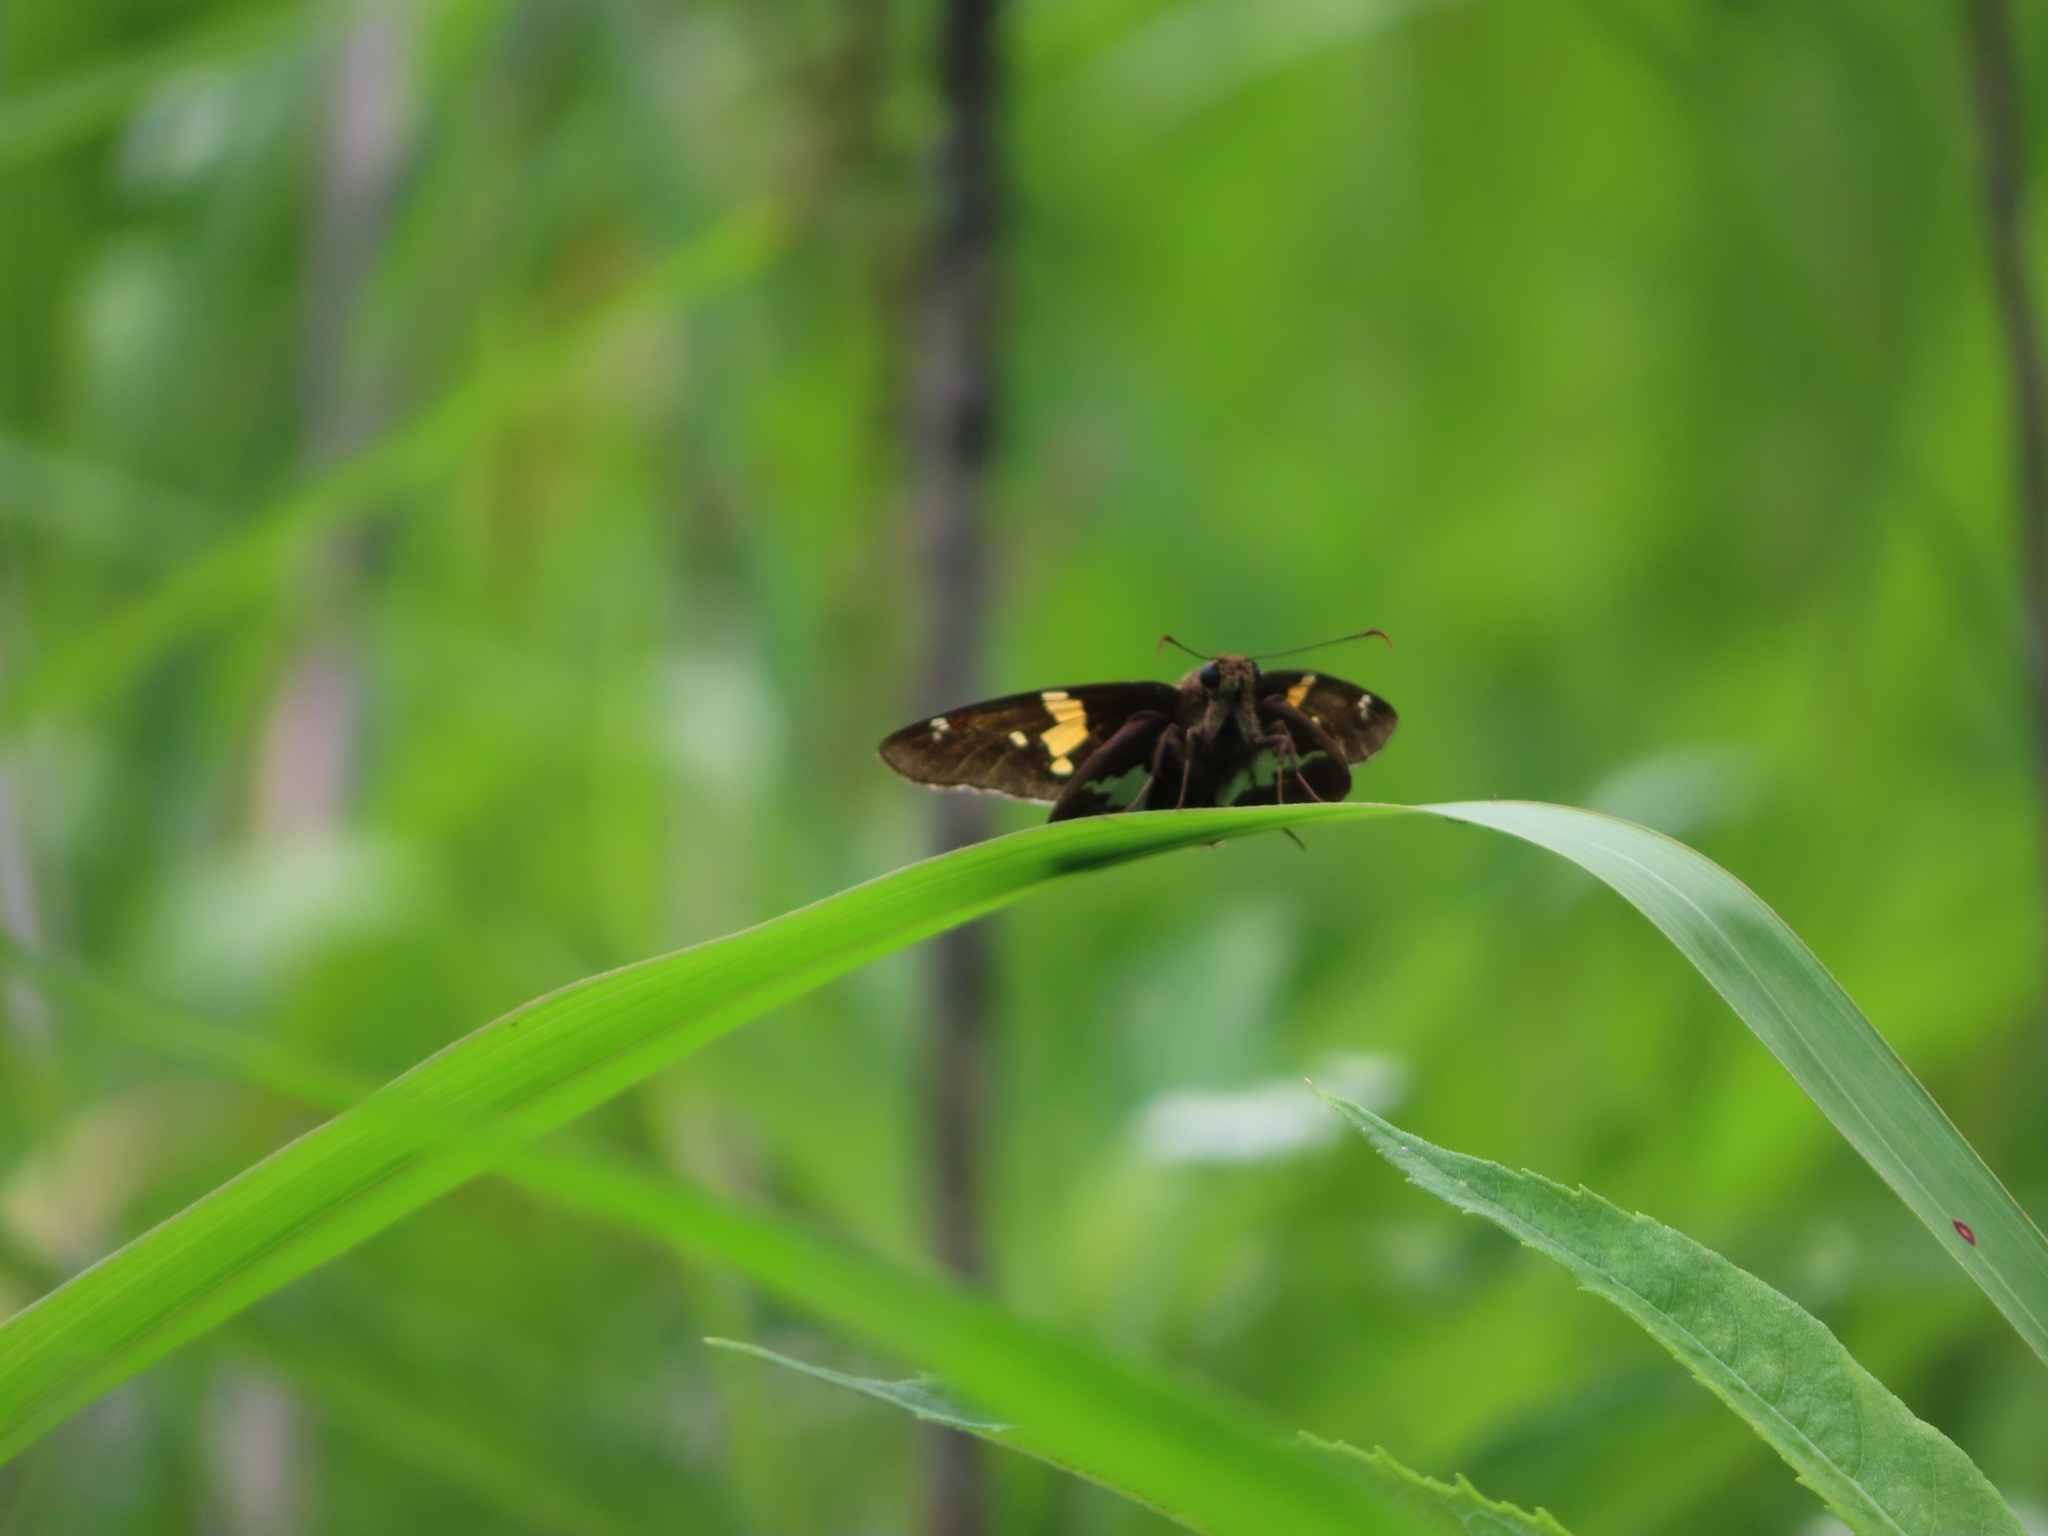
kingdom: Animalia
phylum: Arthropoda
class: Insecta
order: Lepidoptera
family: Hesperiidae
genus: Epargyreus
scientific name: Epargyreus clarus
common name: Silver-spotted skipper
